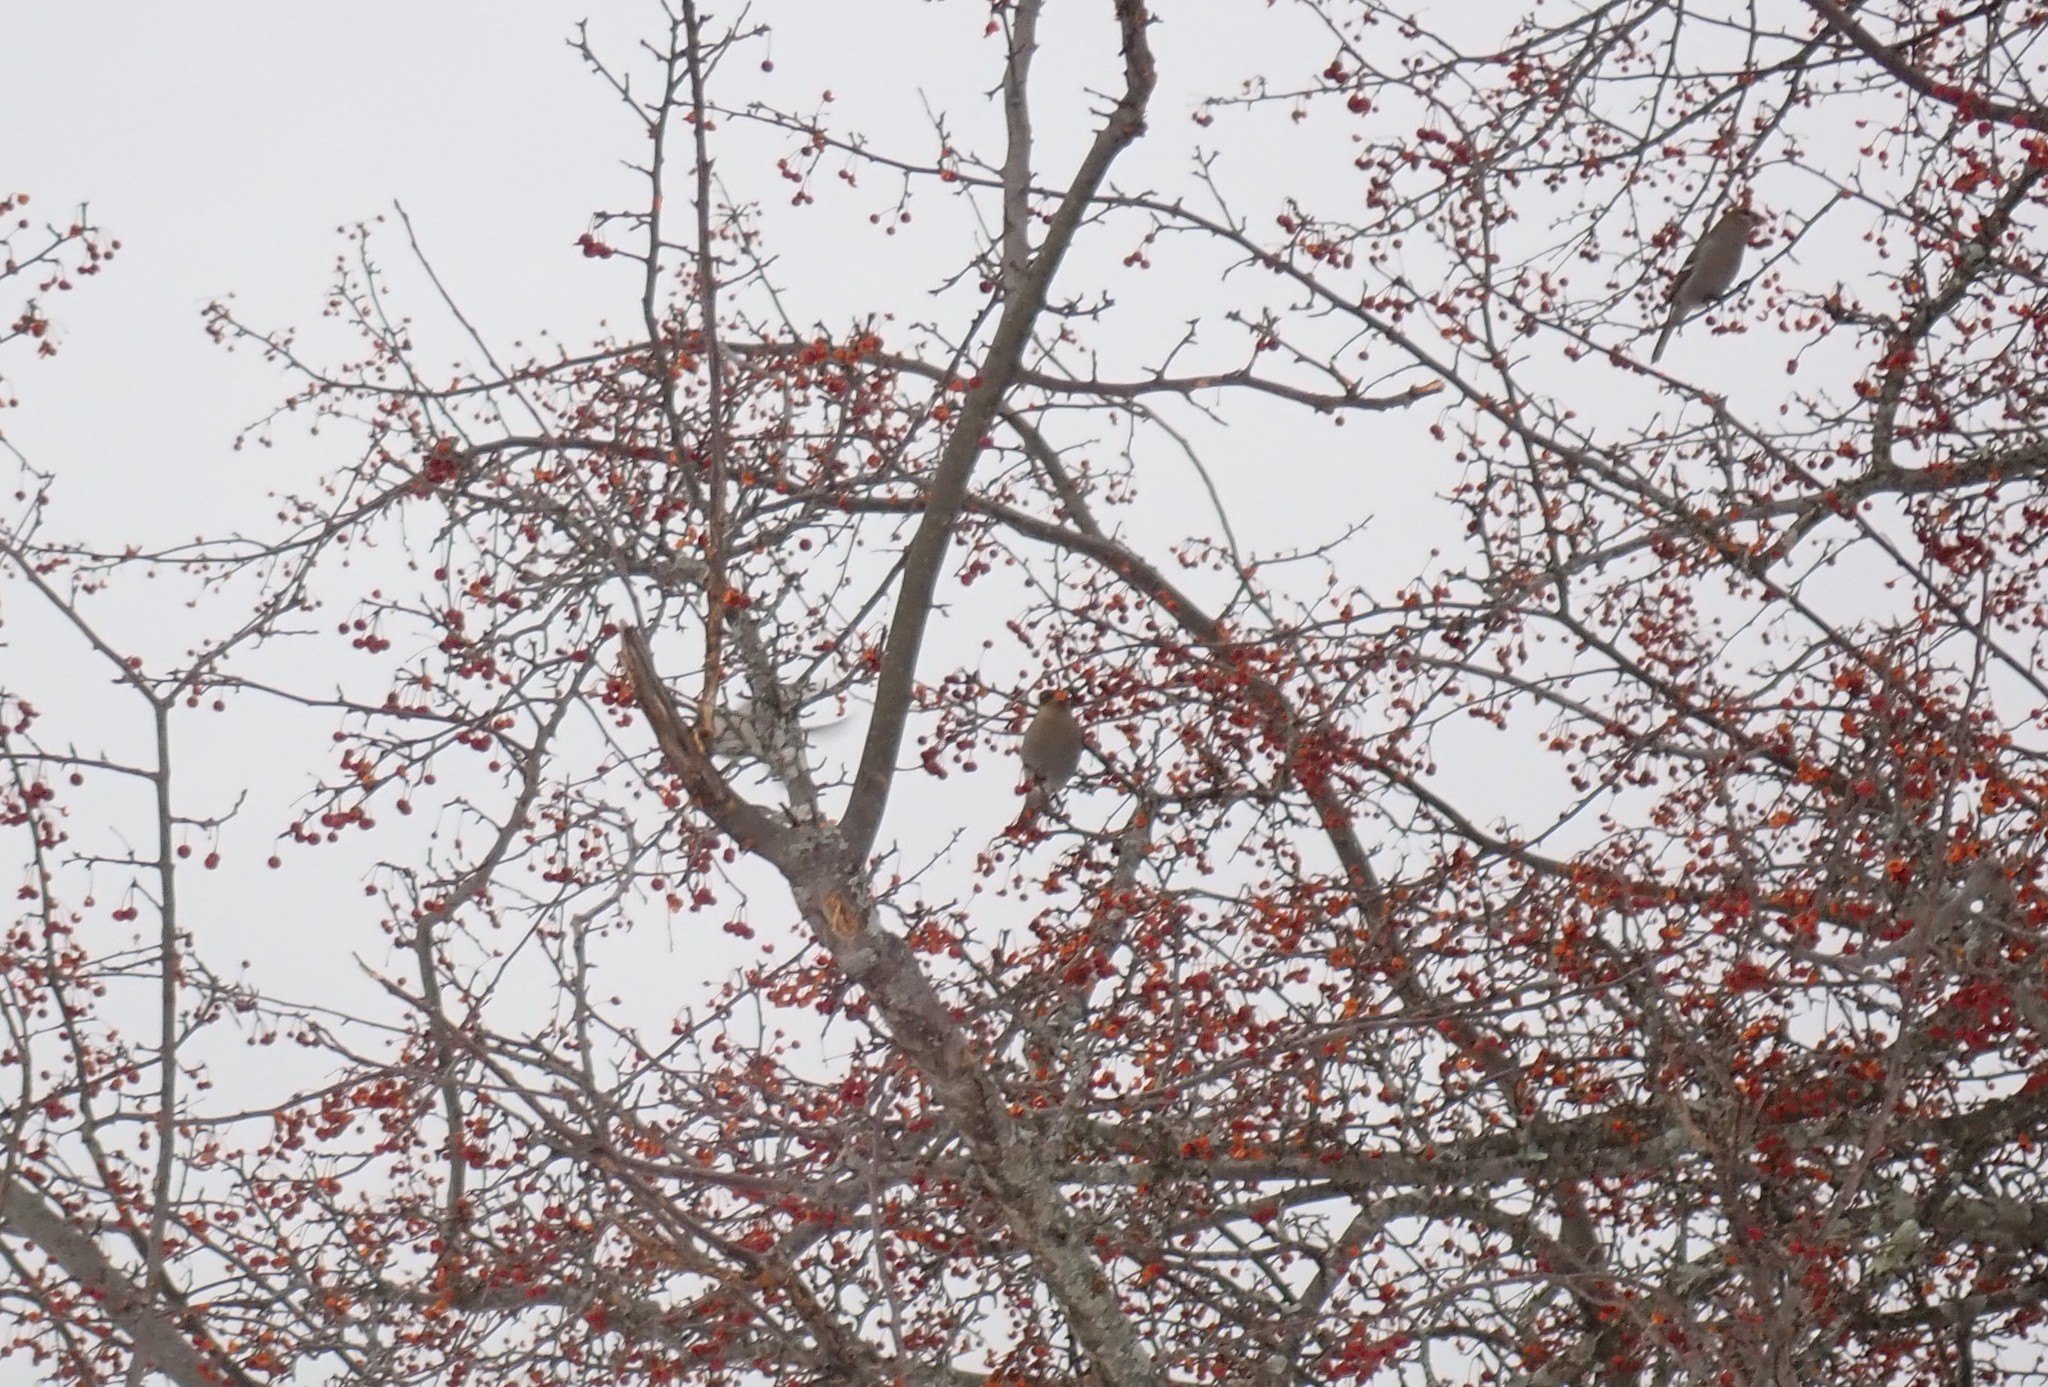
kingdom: Animalia
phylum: Chordata
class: Aves
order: Passeriformes
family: Fringillidae
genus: Pinicola
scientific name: Pinicola enucleator
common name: Pine grosbeak
